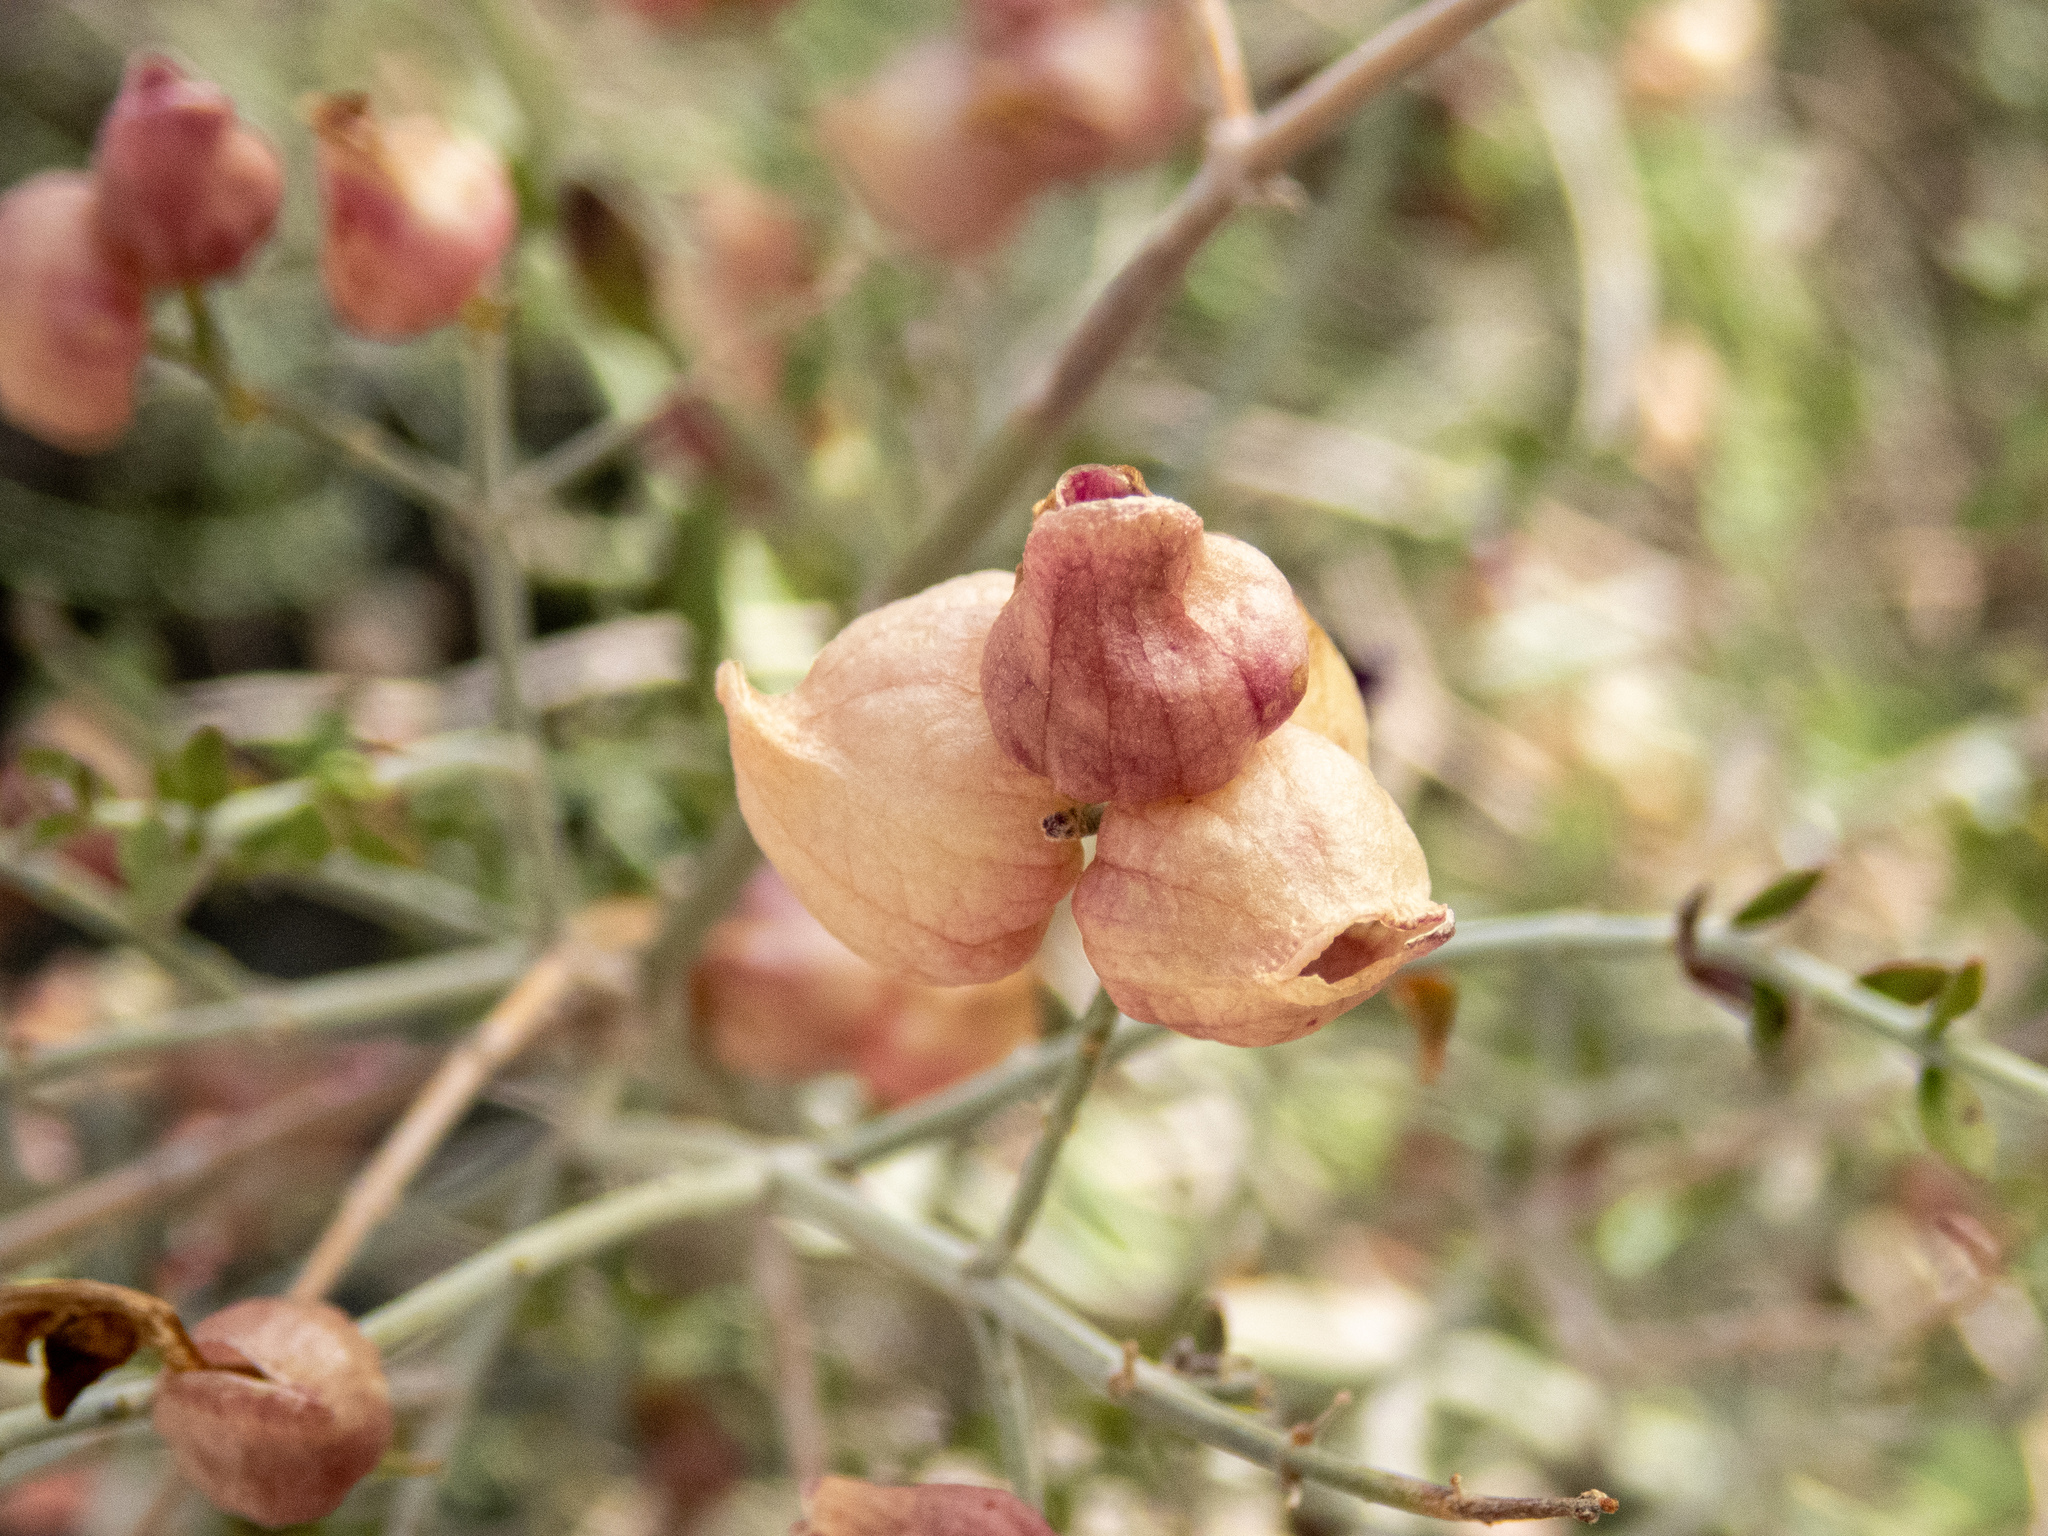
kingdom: Plantae
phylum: Tracheophyta
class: Magnoliopsida
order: Lamiales
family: Lamiaceae
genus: Scutellaria
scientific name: Scutellaria mexicana
